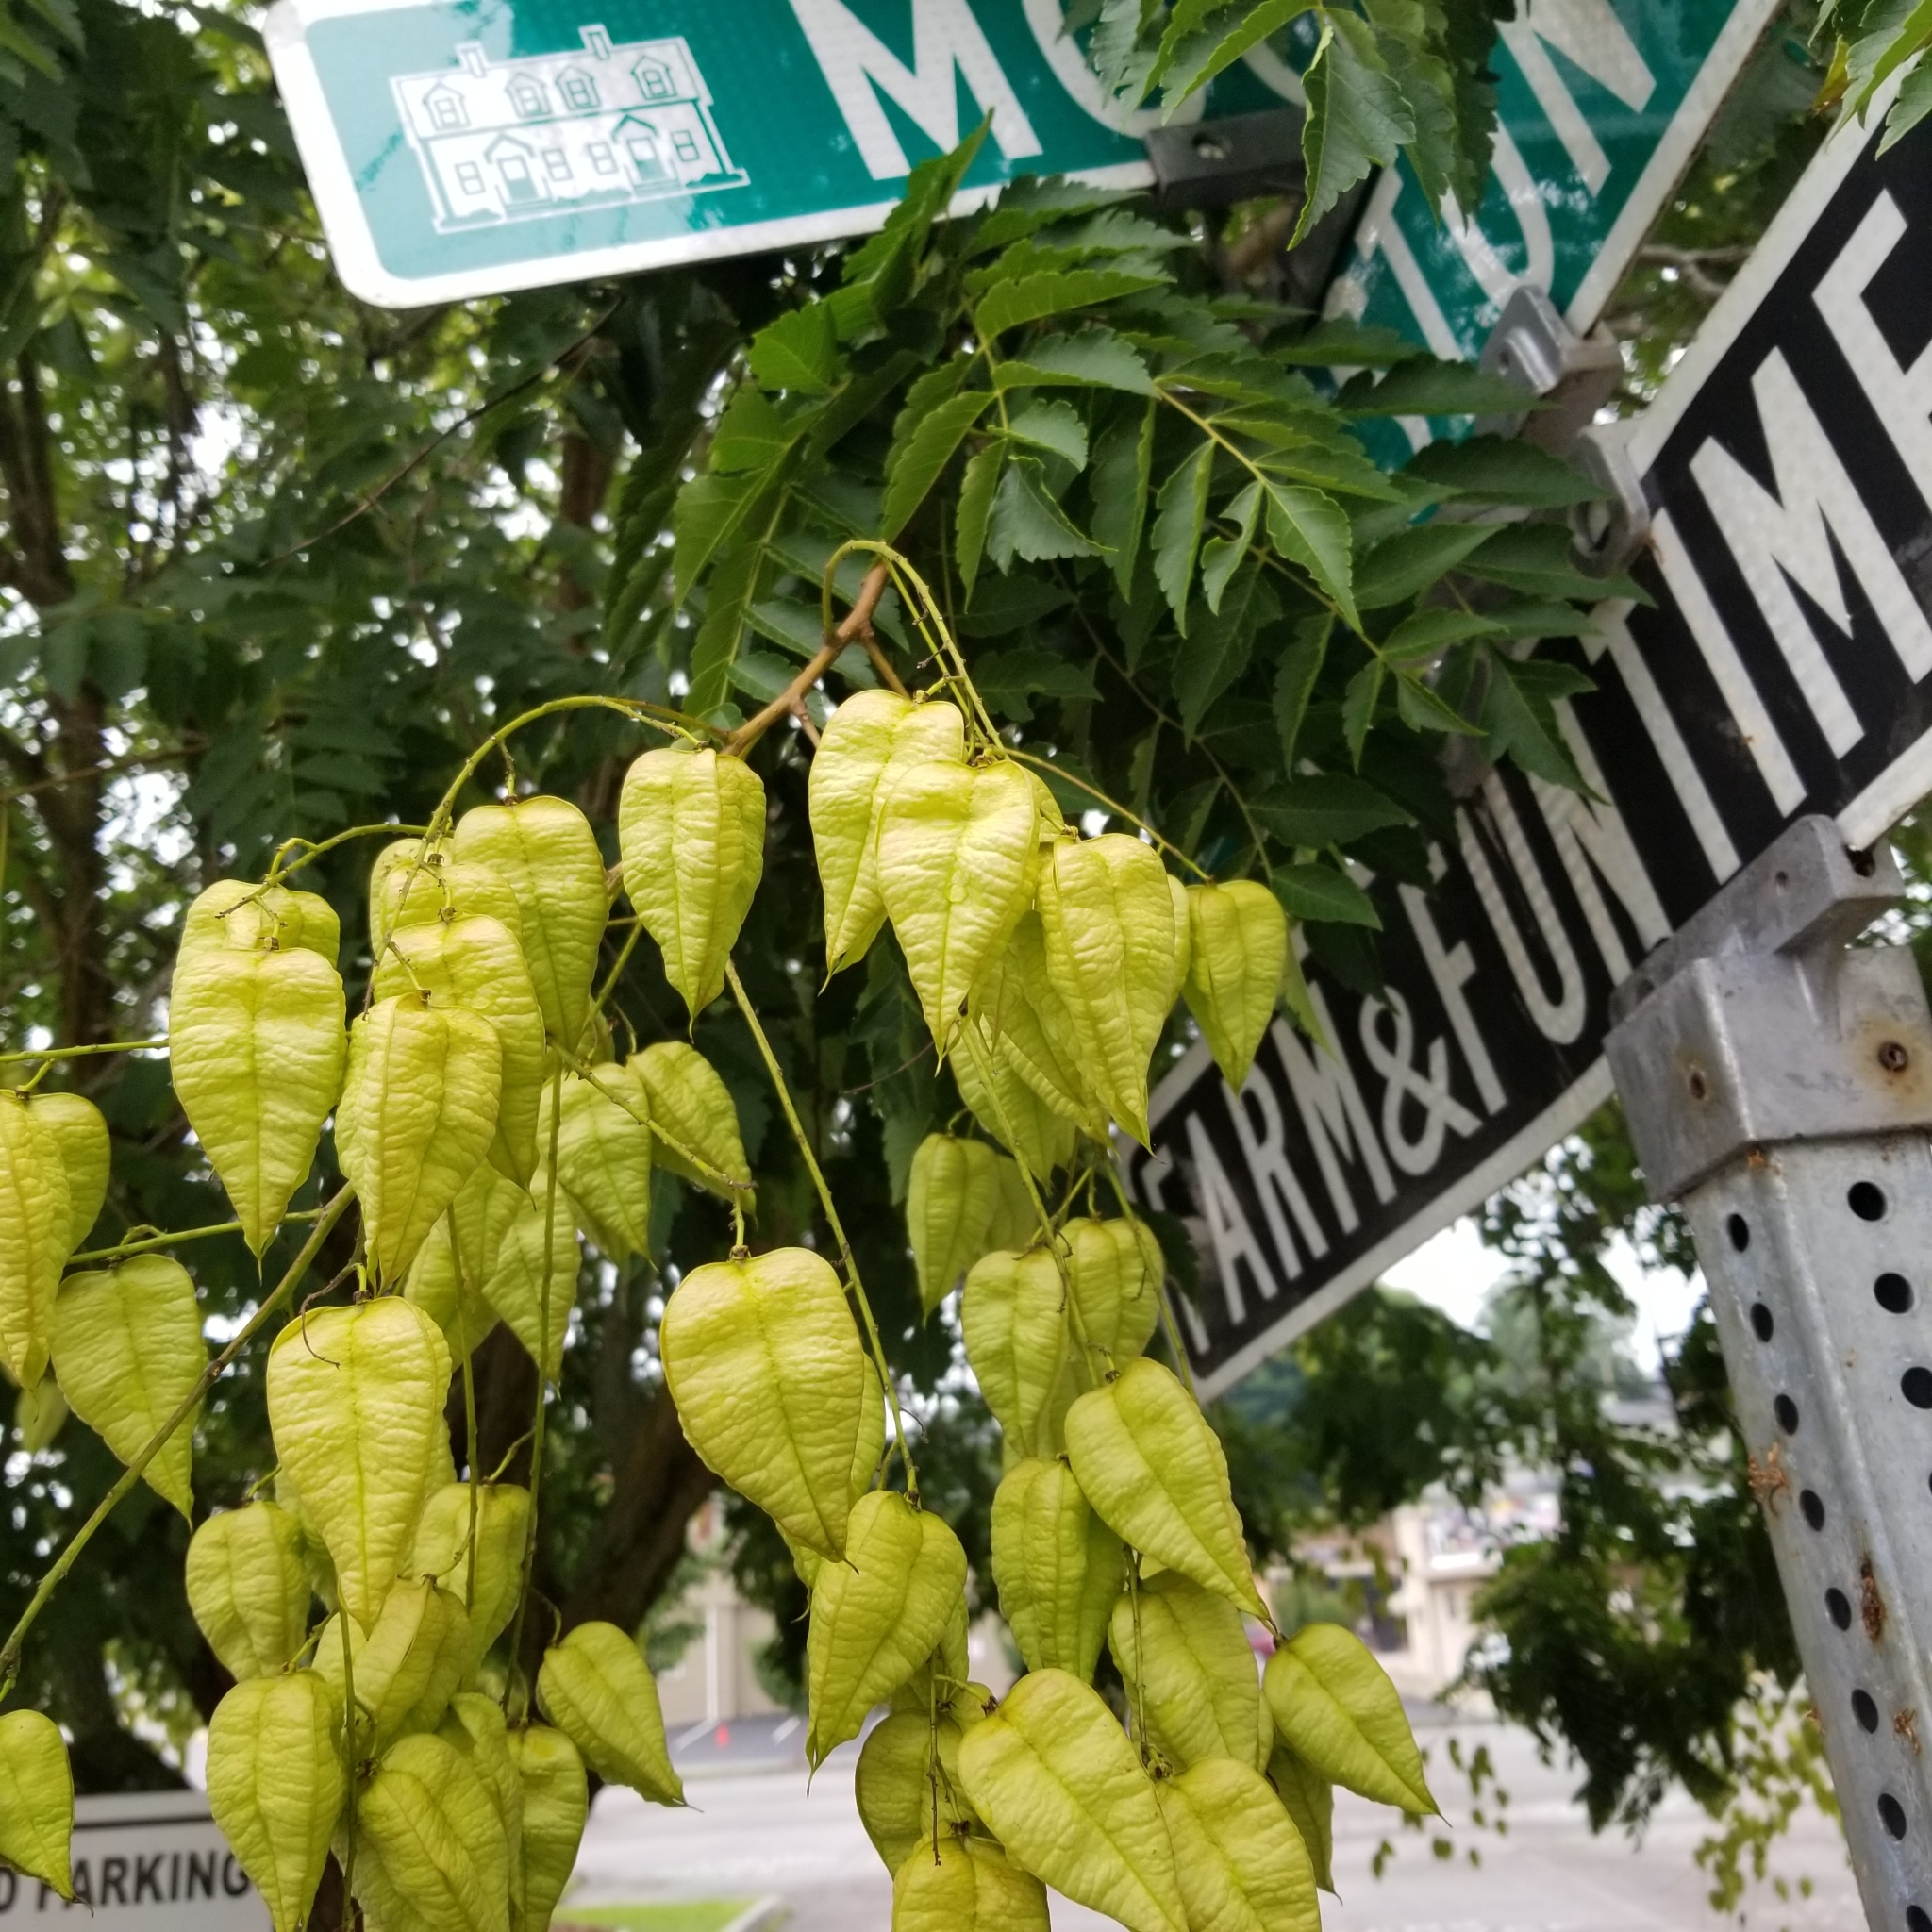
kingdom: Plantae
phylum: Tracheophyta
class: Magnoliopsida
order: Sapindales
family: Sapindaceae
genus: Koelreuteria
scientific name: Koelreuteria paniculata
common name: Pride-of-india
